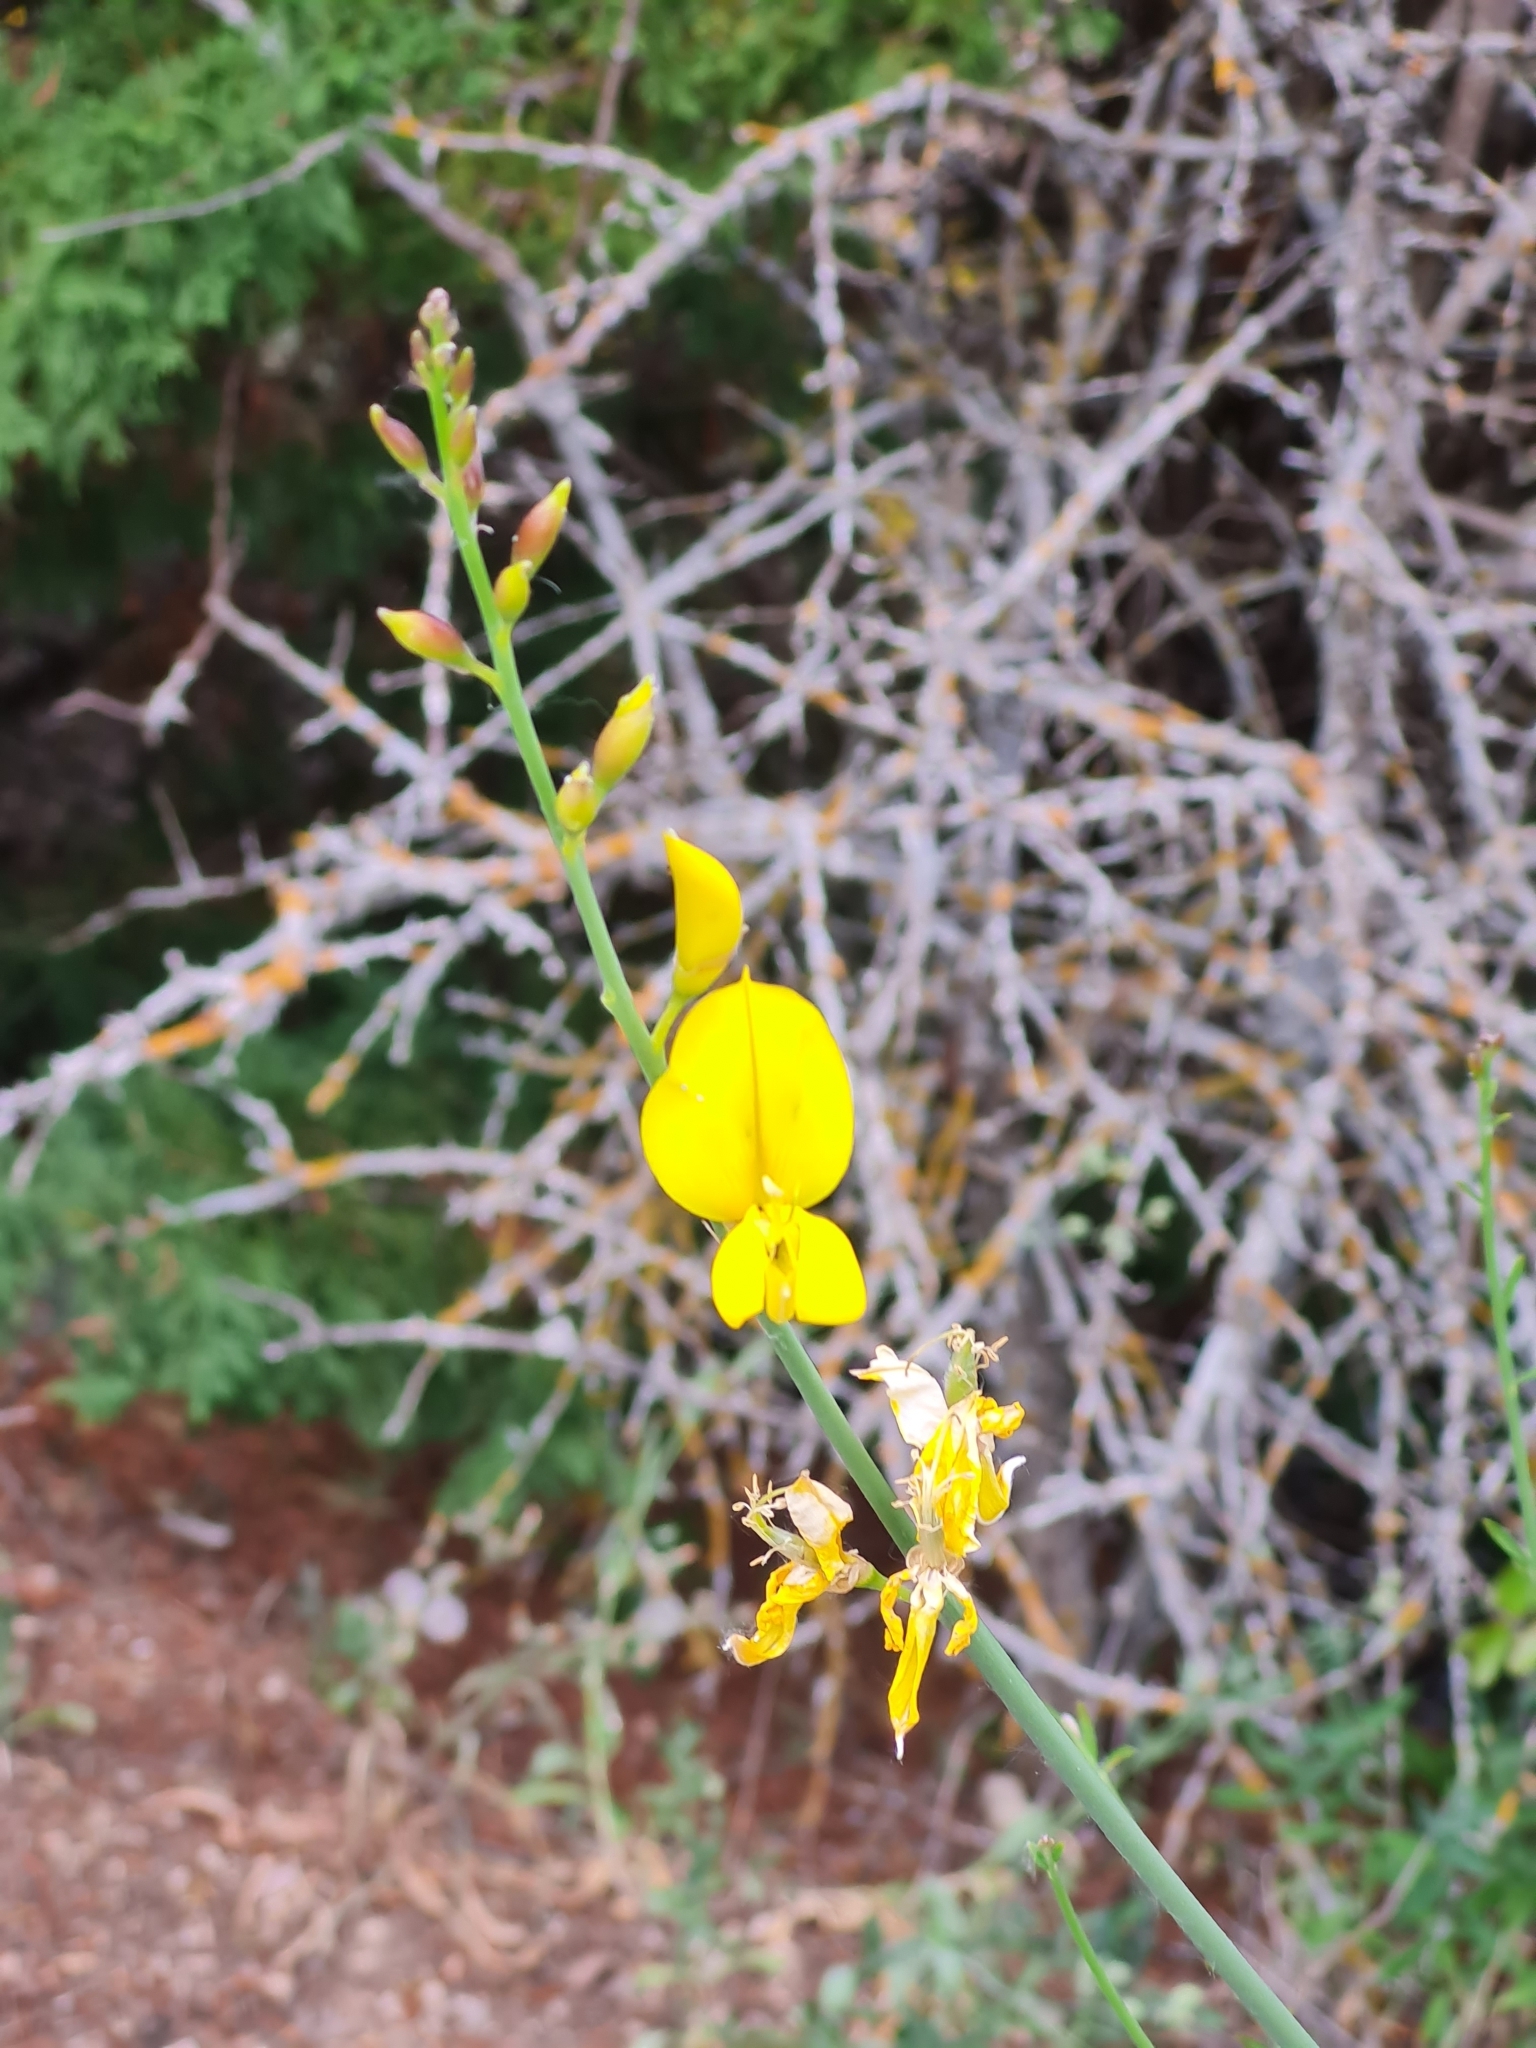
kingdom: Plantae
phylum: Tracheophyta
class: Magnoliopsida
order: Fabales
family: Fabaceae
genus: Spartium
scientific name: Spartium junceum
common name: Spanish broom
